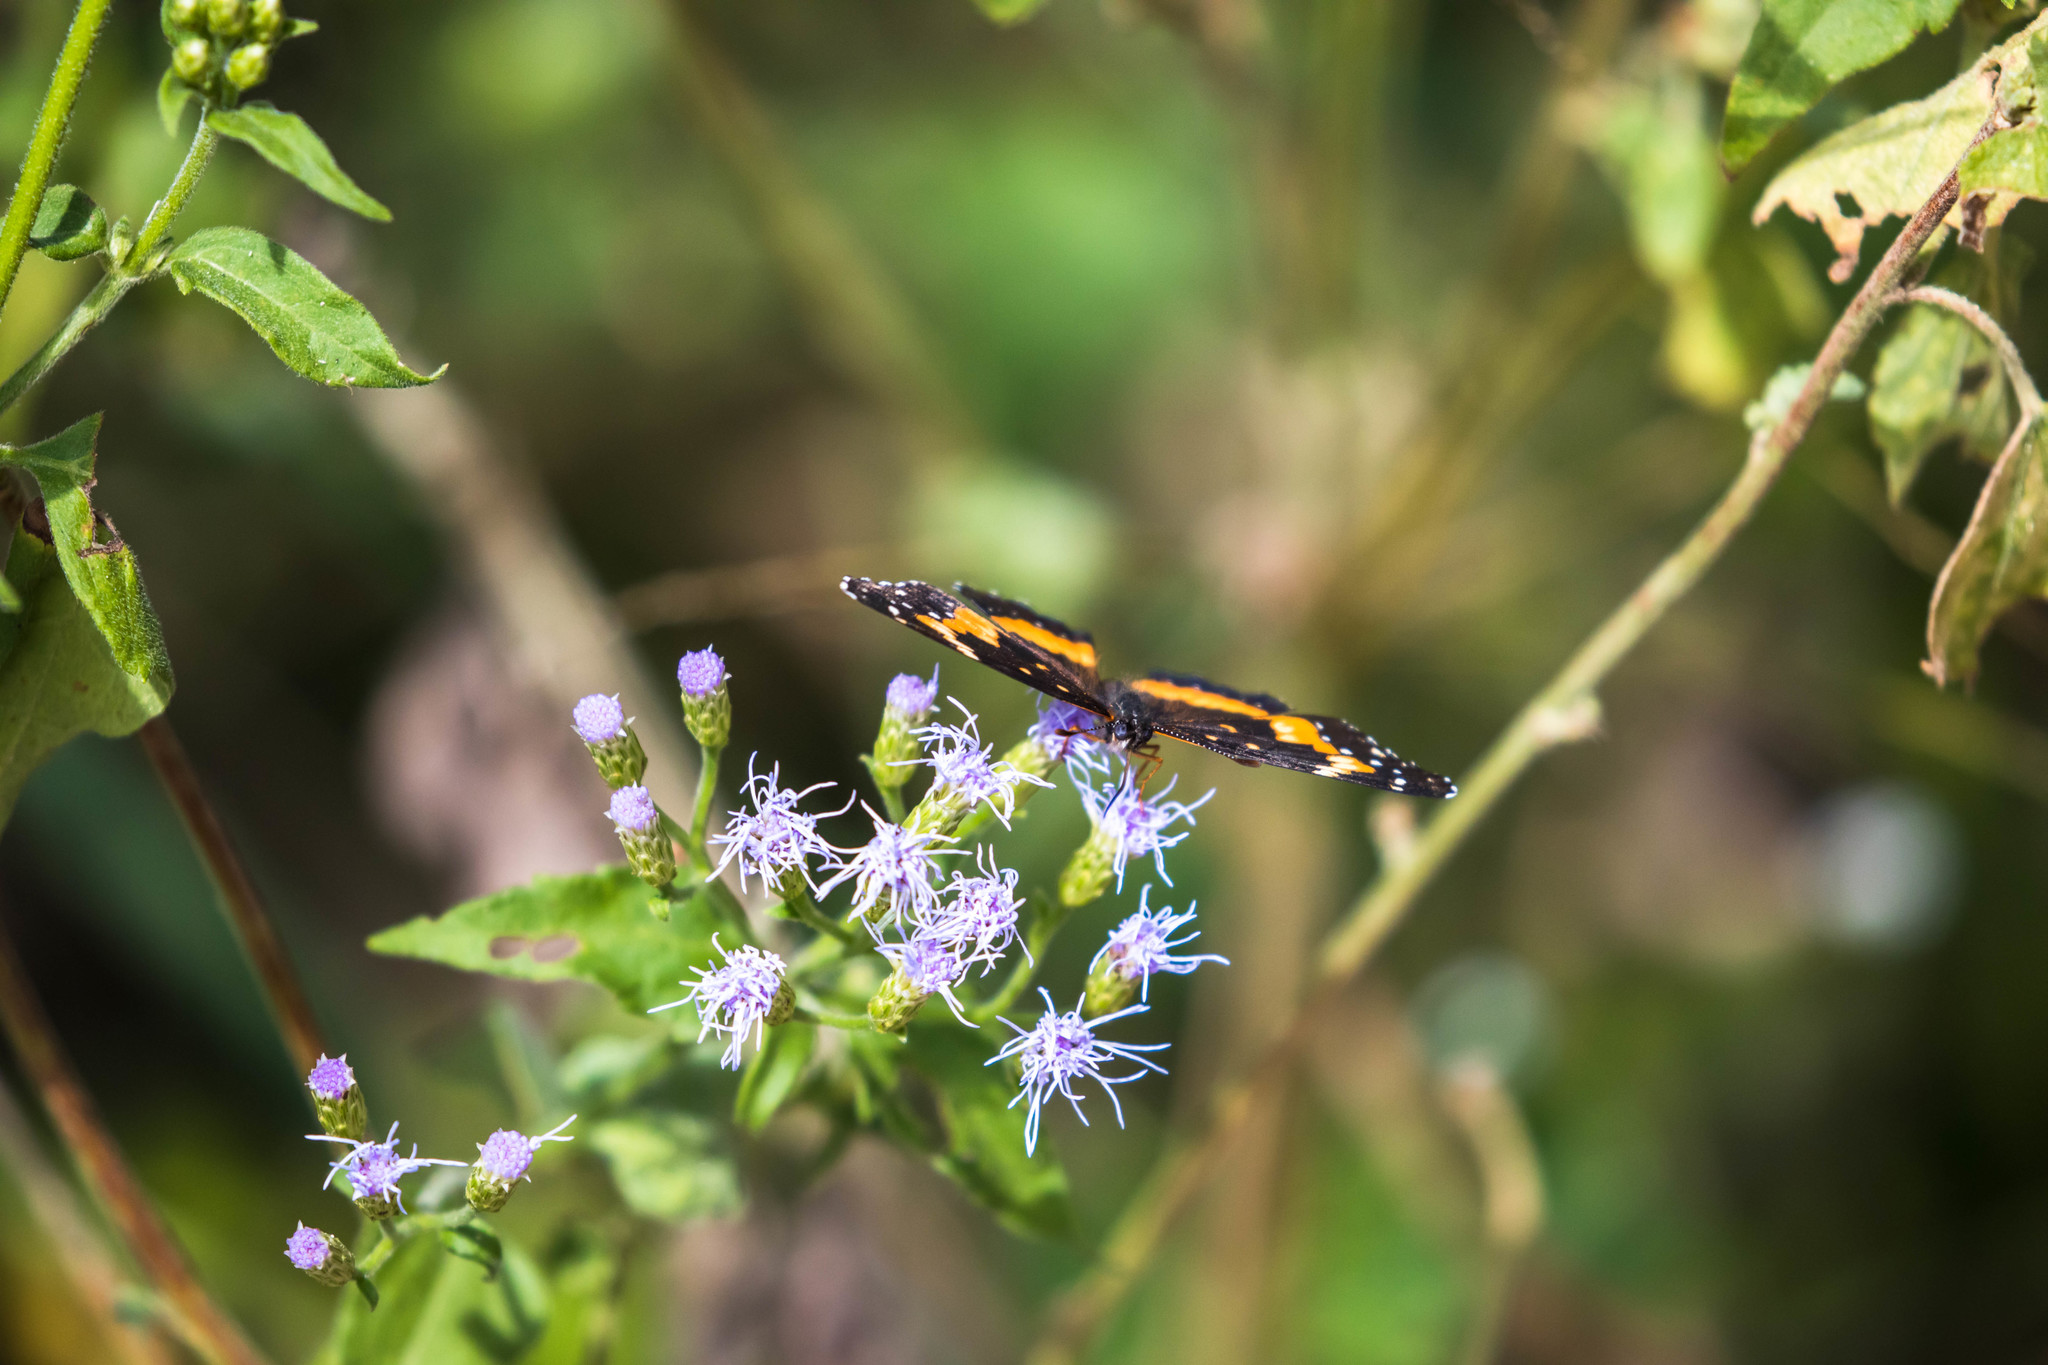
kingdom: Animalia
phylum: Arthropoda
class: Insecta
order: Lepidoptera
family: Nymphalidae
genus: Chlosyne
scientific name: Chlosyne lacinia
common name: Bordered patch
